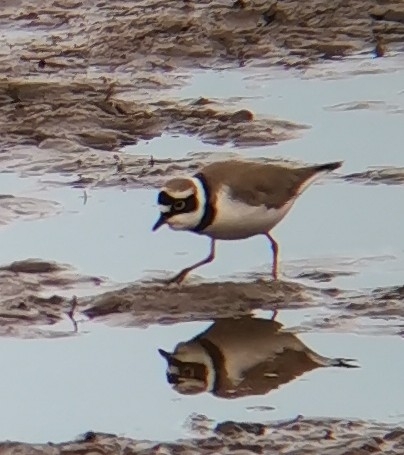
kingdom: Animalia
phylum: Chordata
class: Aves
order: Charadriiformes
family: Charadriidae
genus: Charadrius
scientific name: Charadrius dubius
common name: Little ringed plover
